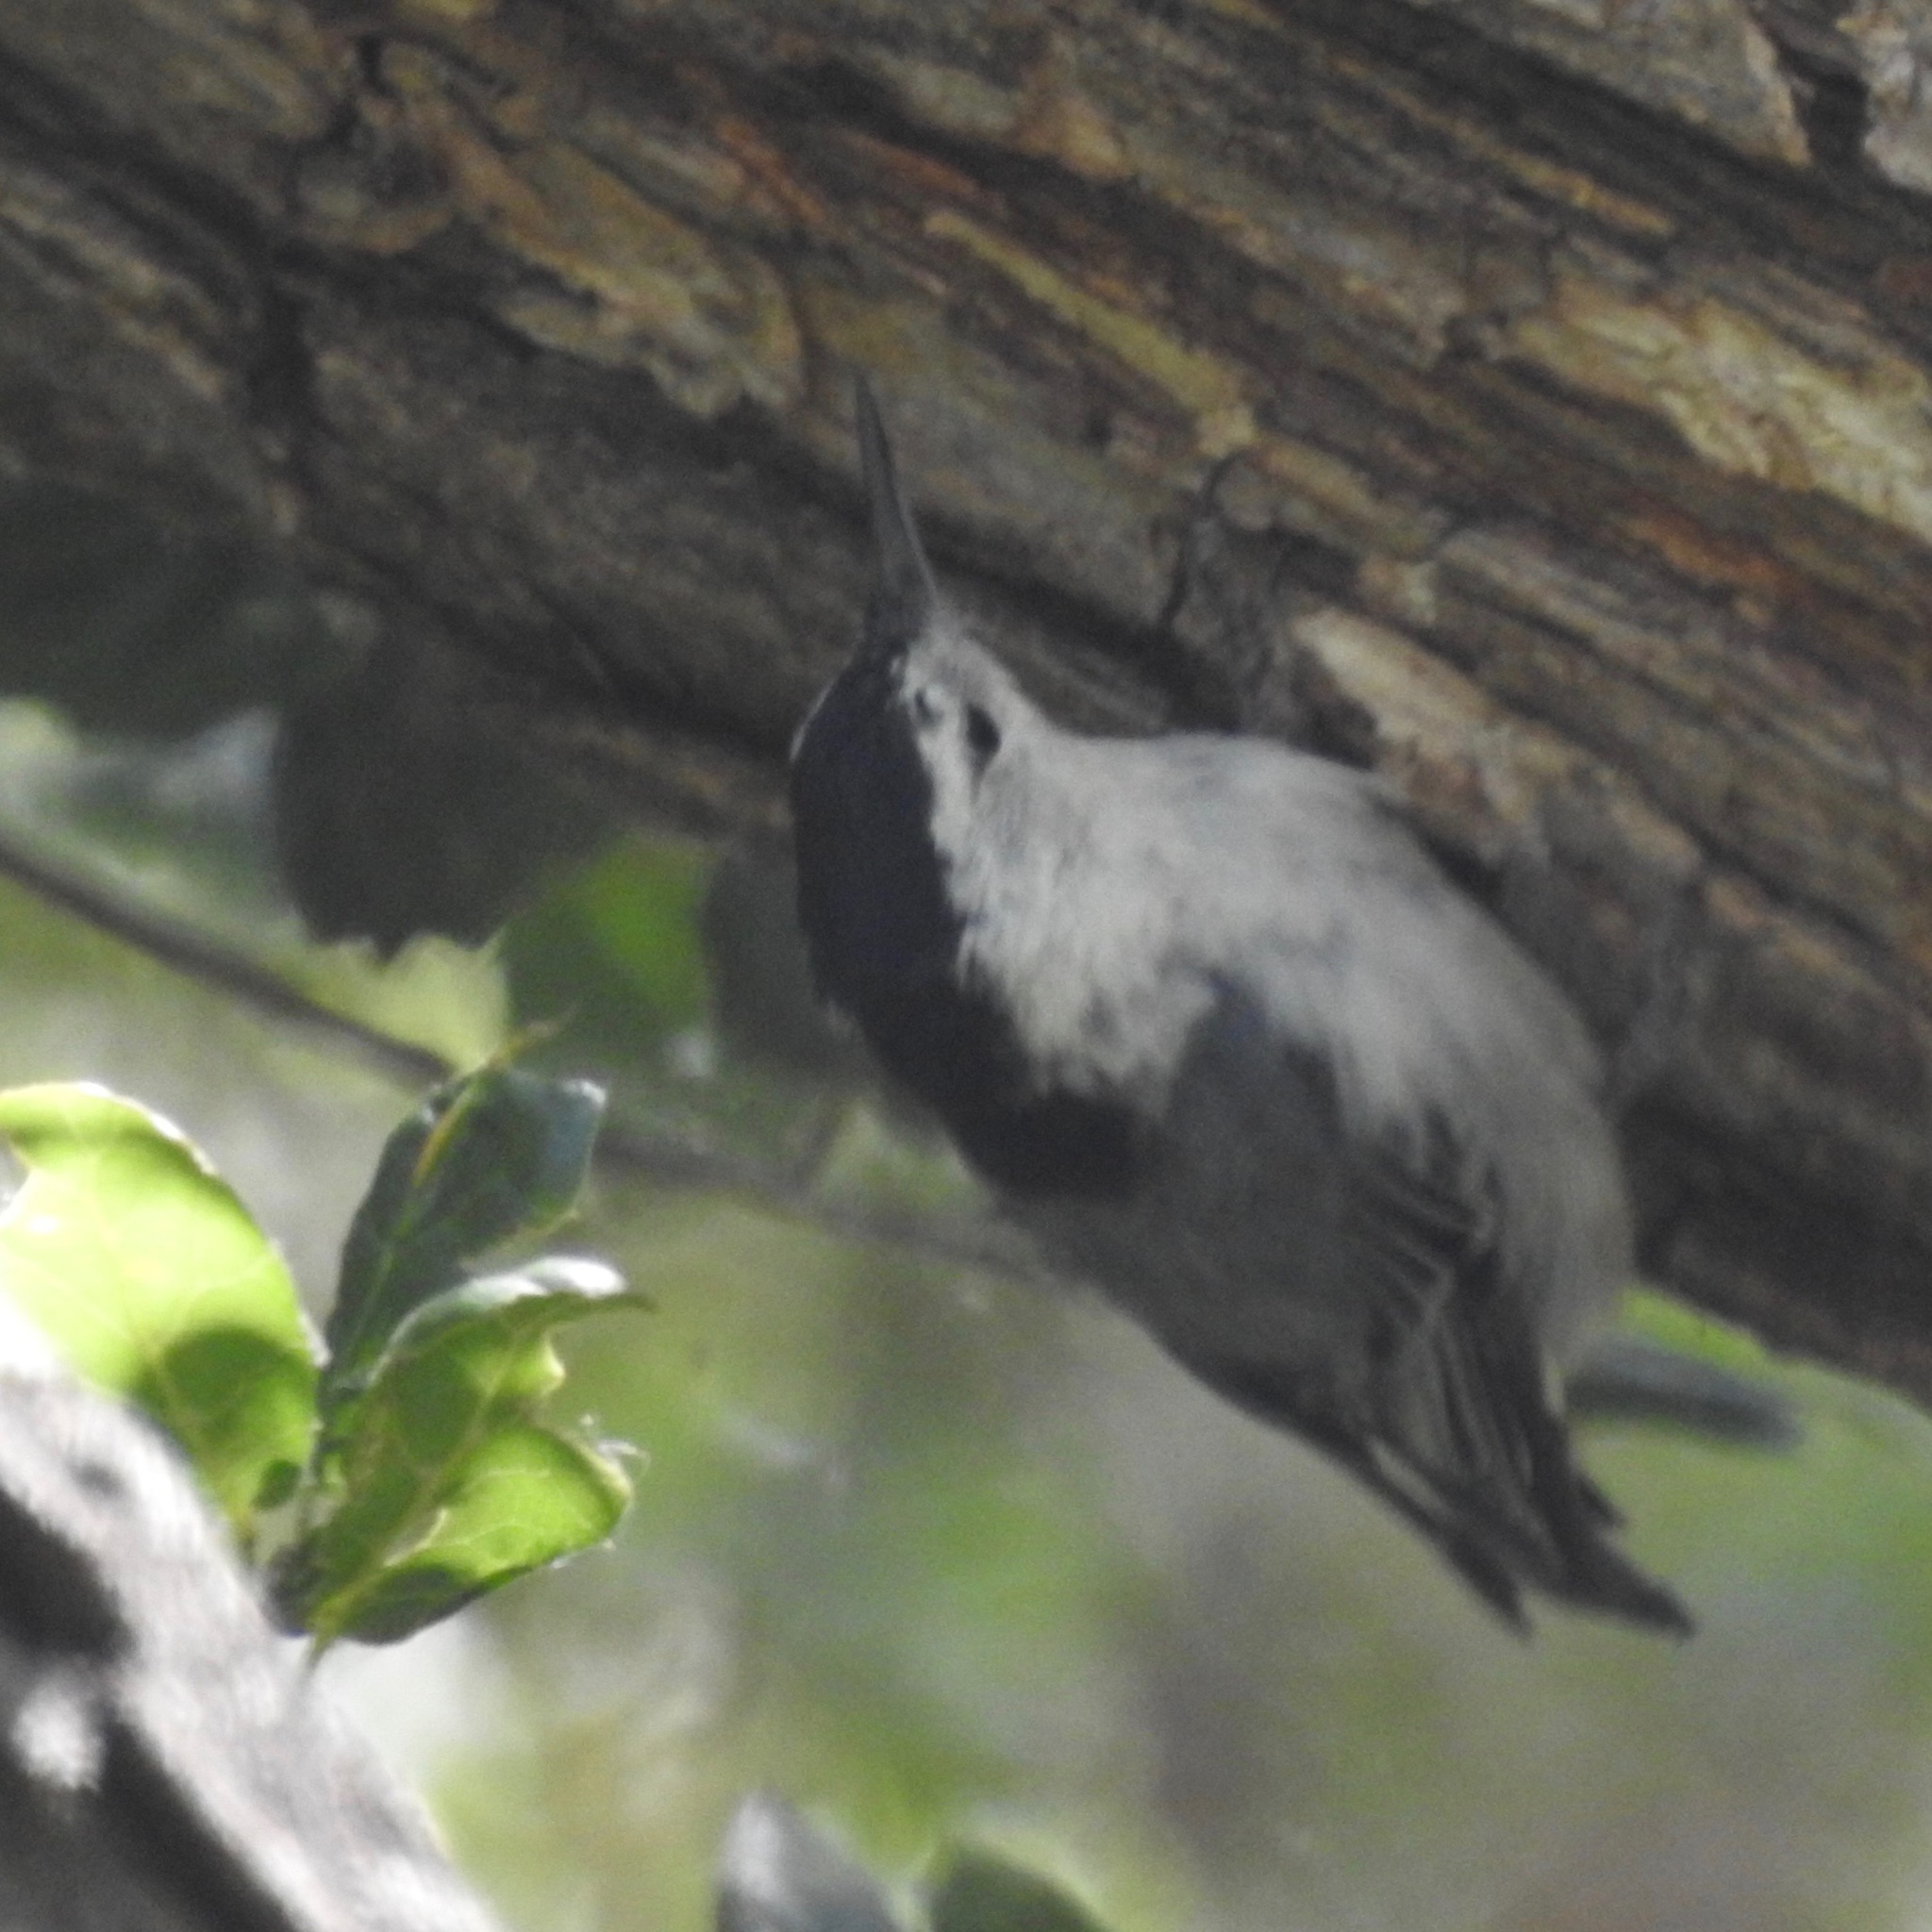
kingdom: Animalia
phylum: Chordata
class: Aves
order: Passeriformes
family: Sittidae
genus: Sitta
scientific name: Sitta carolinensis
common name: White-breasted nuthatch
